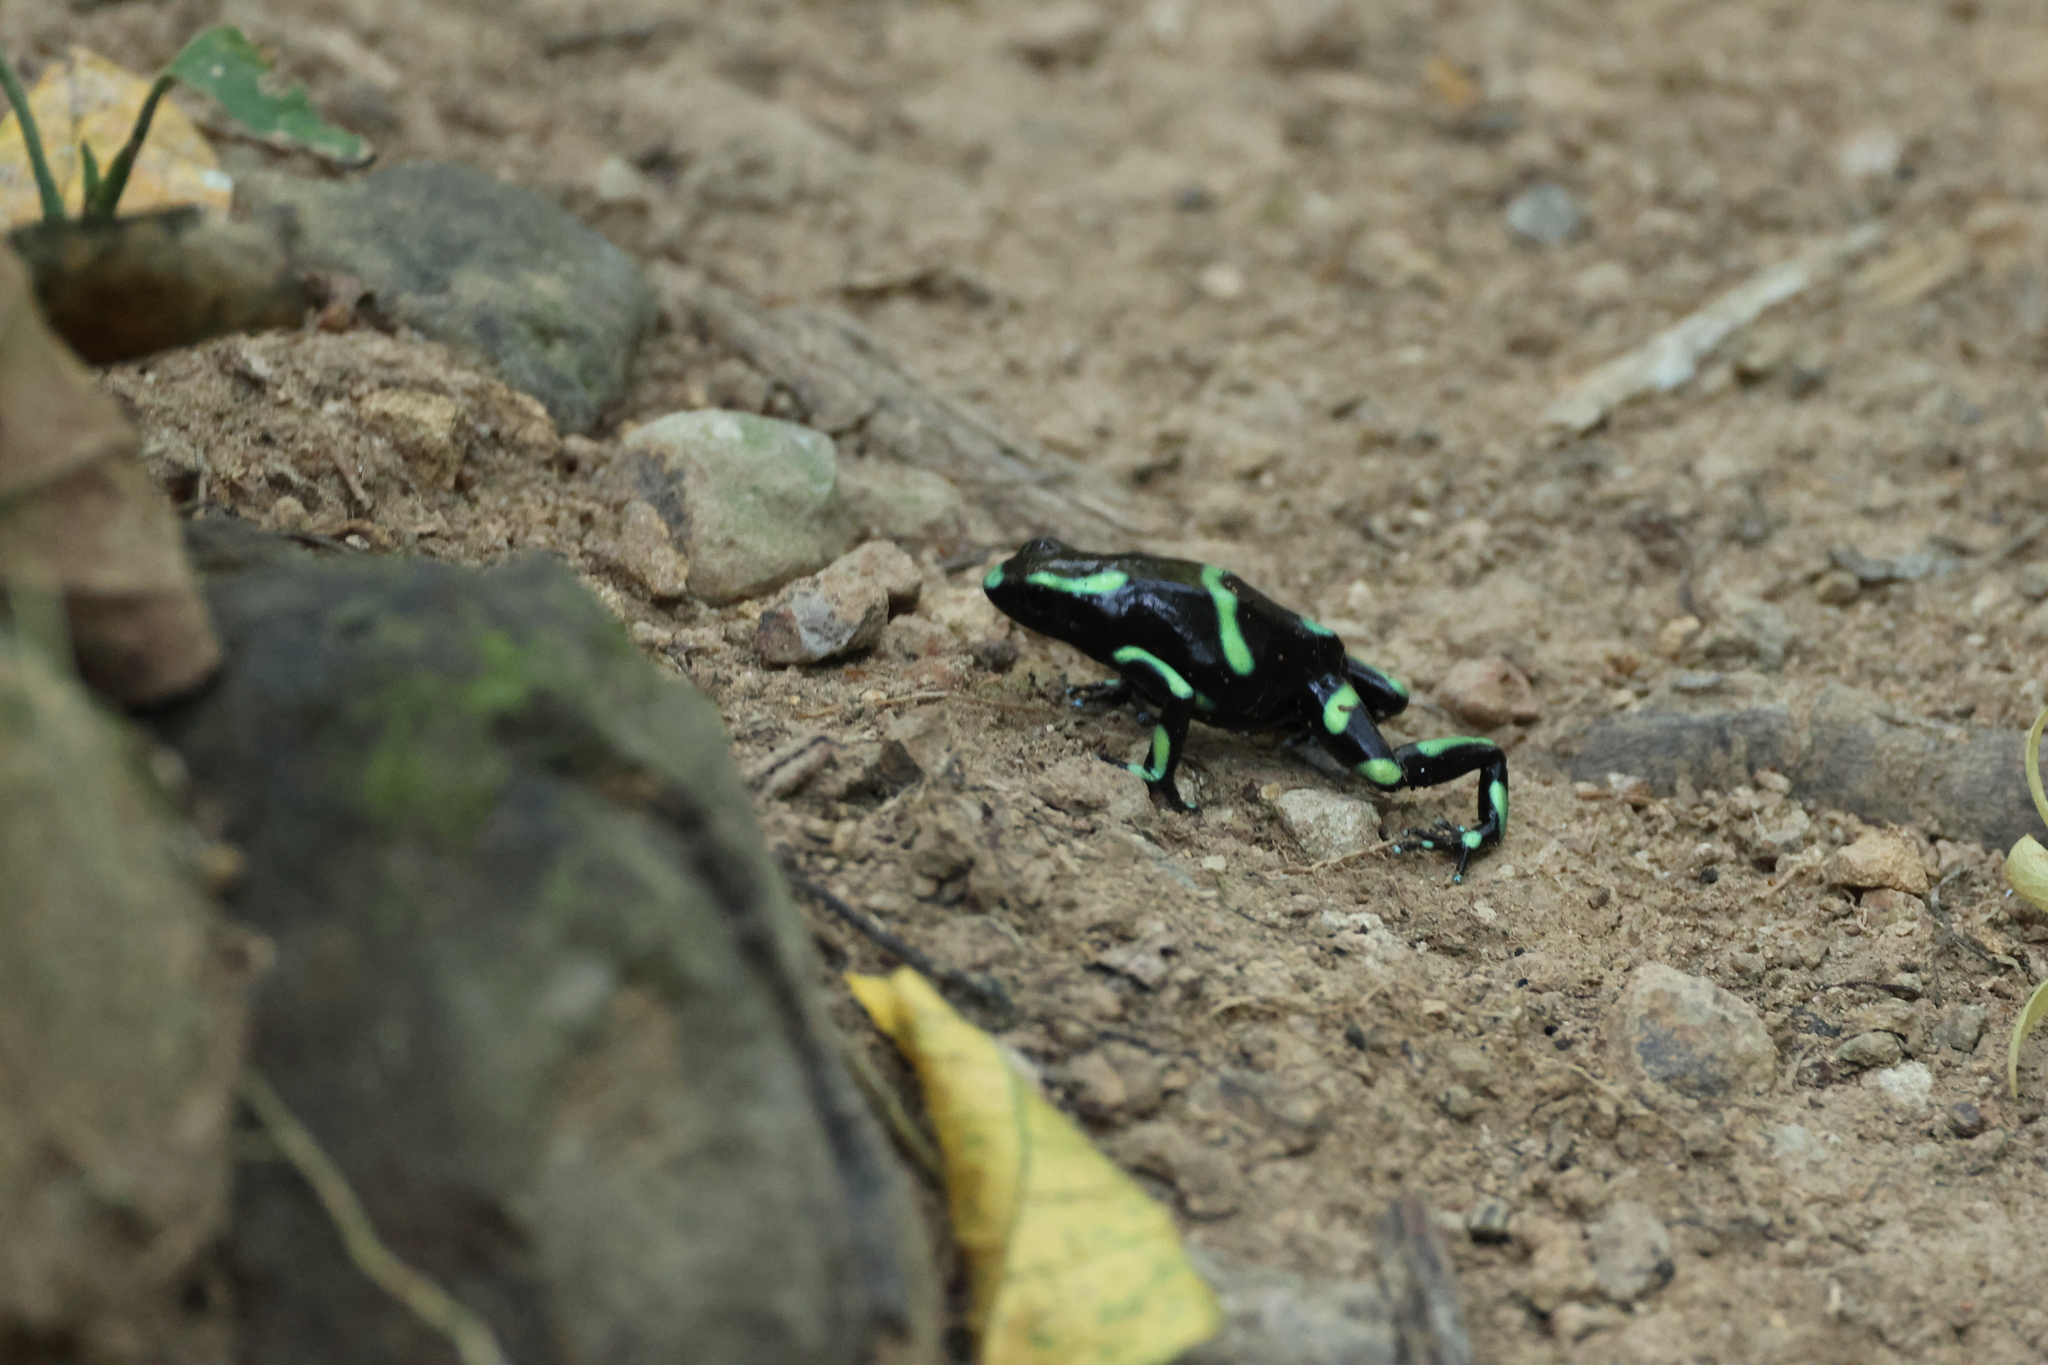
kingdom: Animalia
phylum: Chordata
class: Amphibia
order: Anura
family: Dendrobatidae
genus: Dendrobates
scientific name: Dendrobates auratus
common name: Green and black poison dart frog
